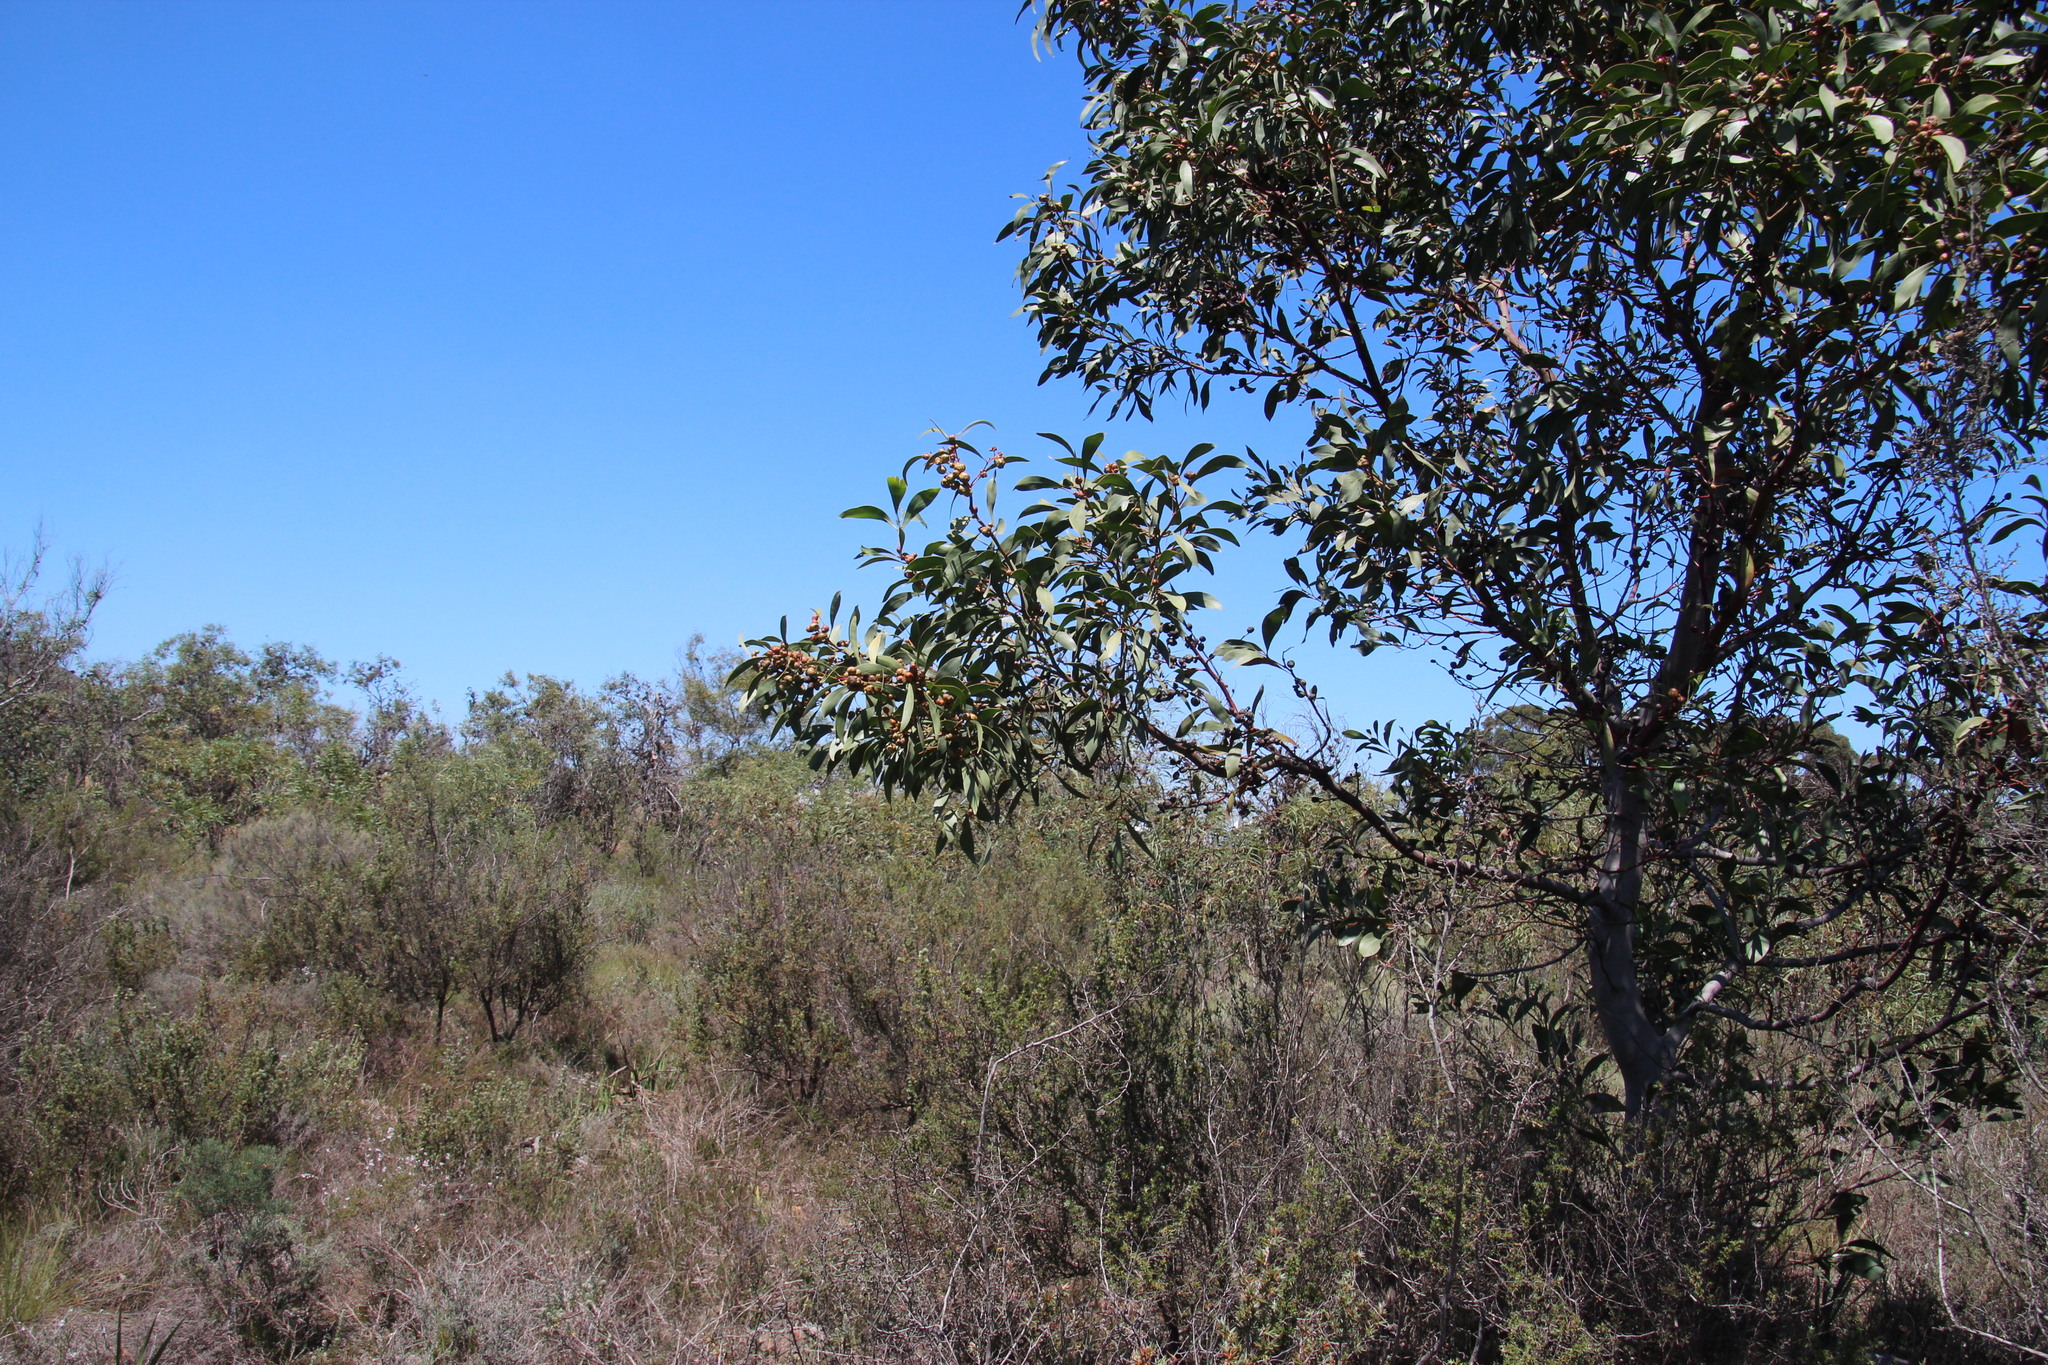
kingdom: Plantae
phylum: Tracheophyta
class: Magnoliopsida
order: Fabales
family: Fabaceae
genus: Acacia
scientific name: Acacia pycnantha
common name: Golden wattle
